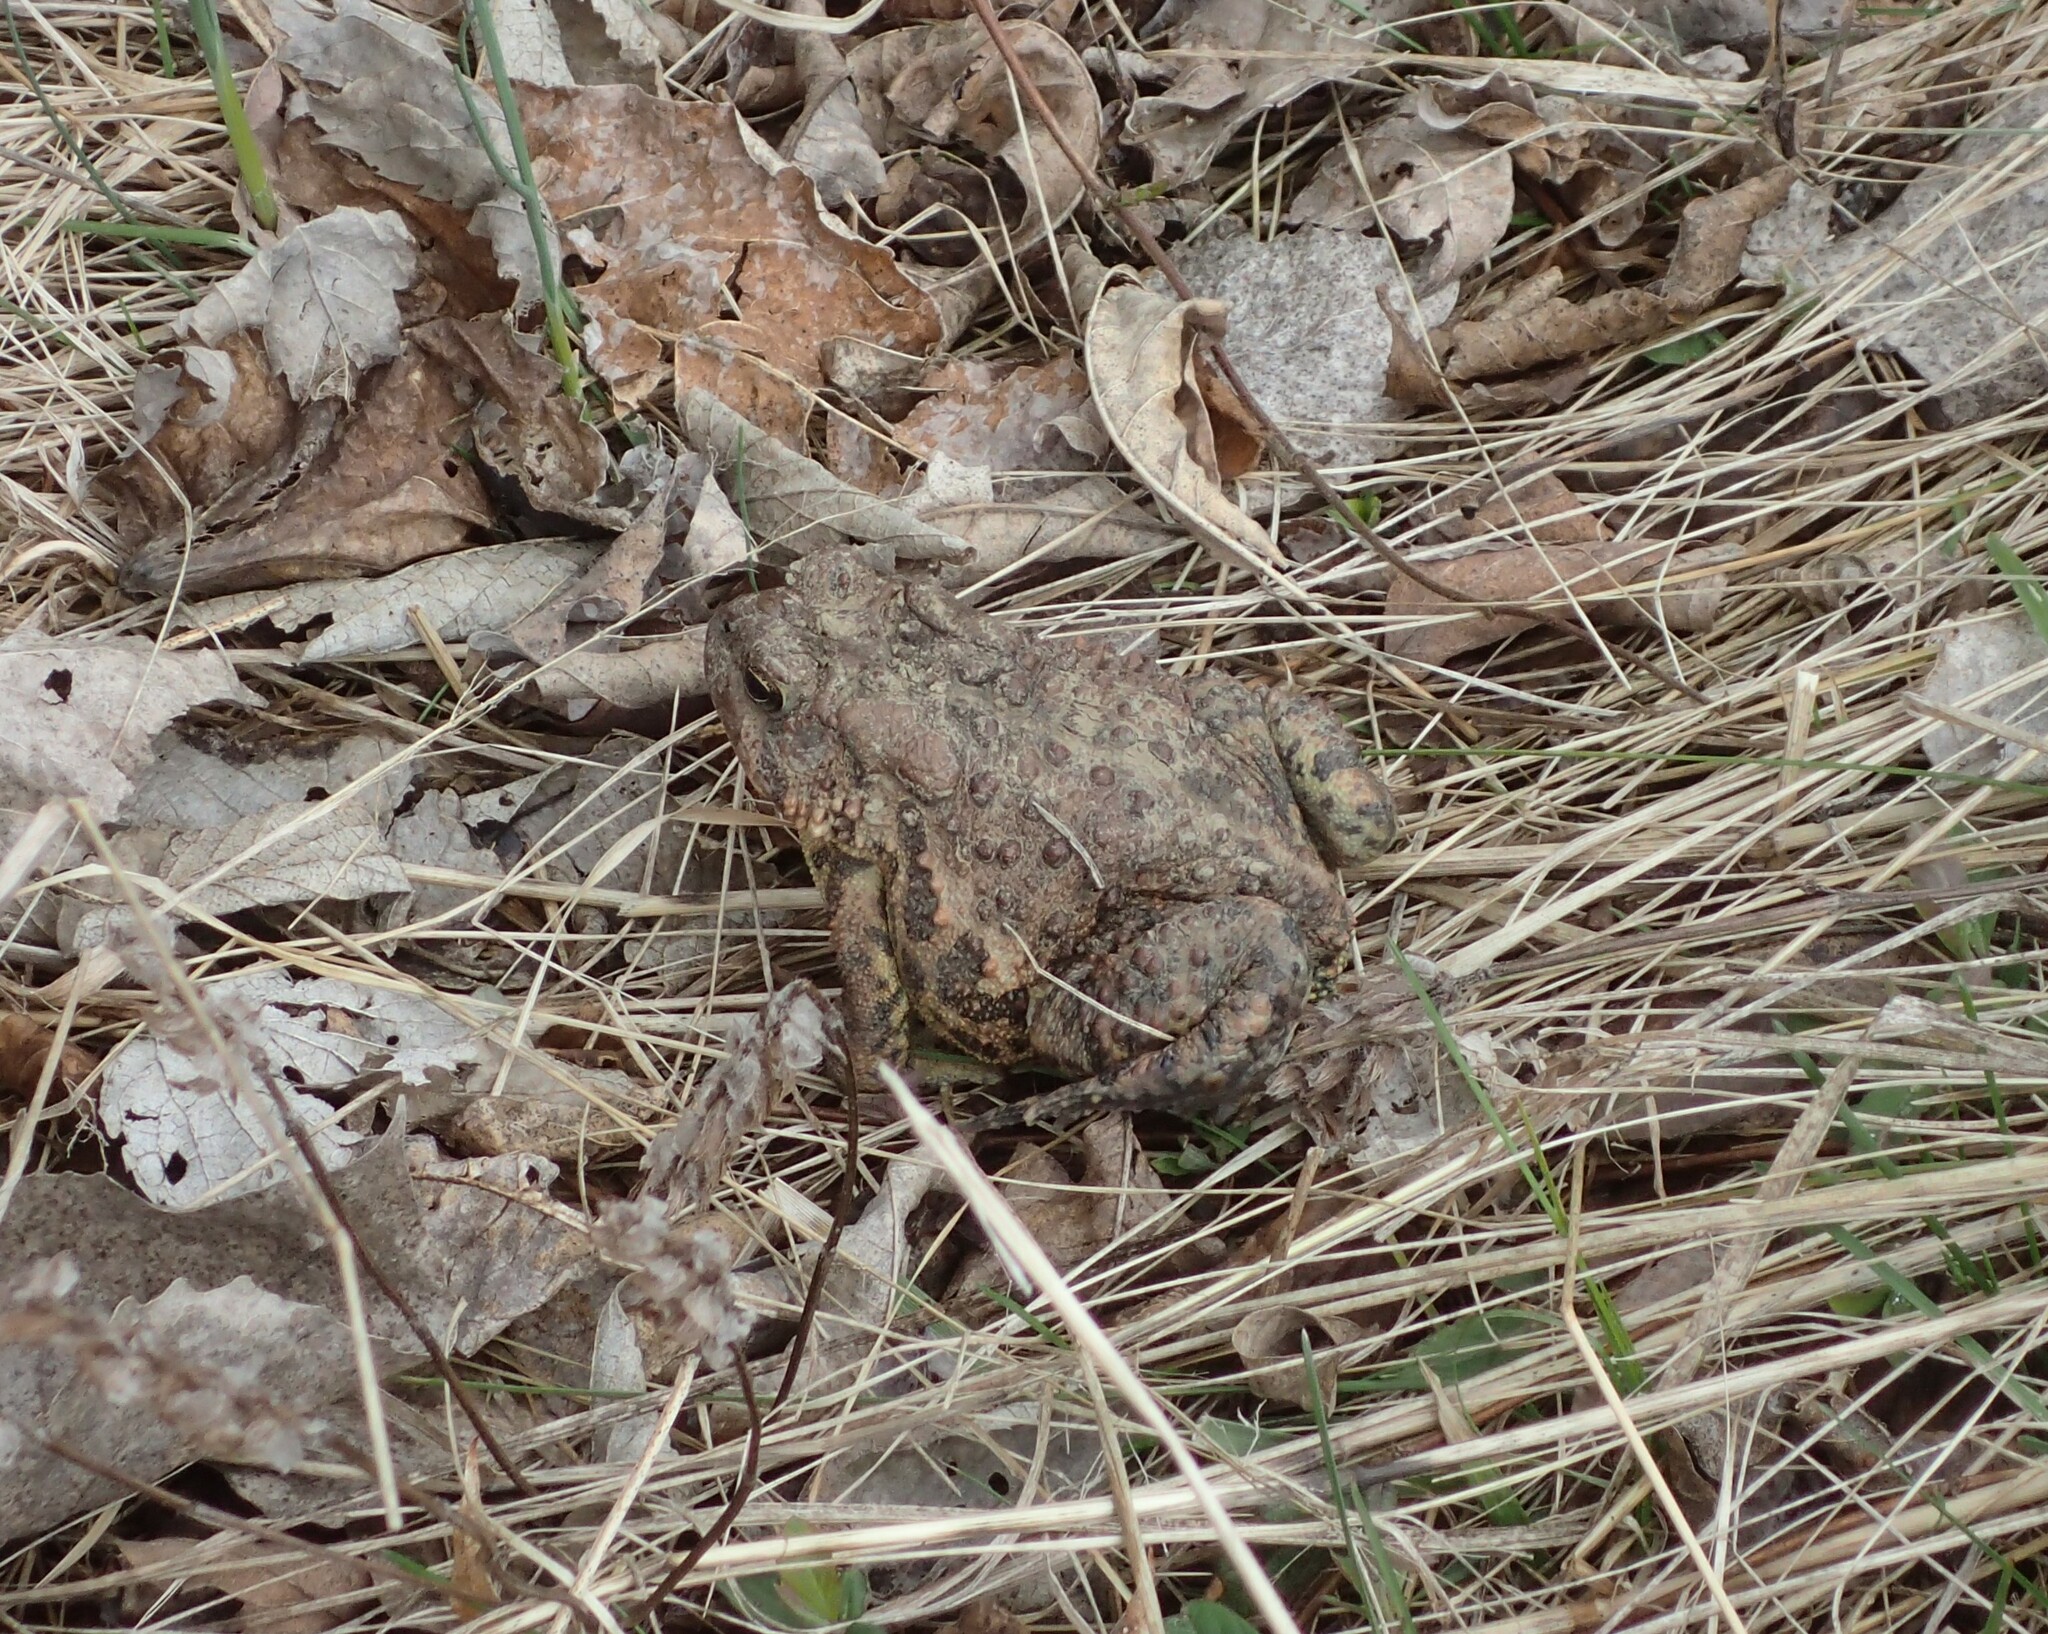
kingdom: Animalia
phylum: Chordata
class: Amphibia
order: Anura
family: Bufonidae
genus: Anaxyrus
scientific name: Anaxyrus americanus
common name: American toad
